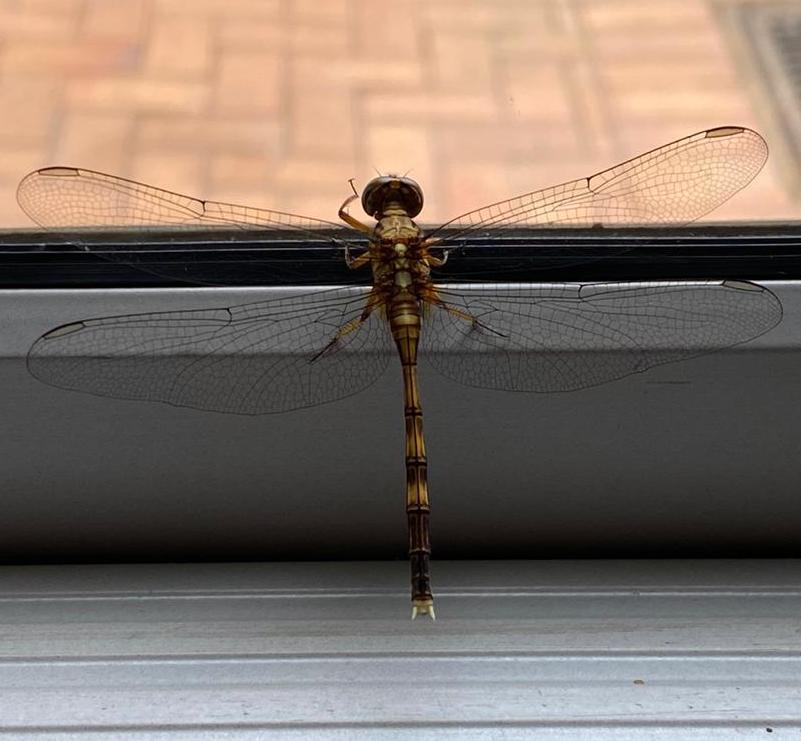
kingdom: Animalia
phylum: Arthropoda
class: Insecta
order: Odonata
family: Libellulidae
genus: Orthetrum
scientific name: Orthetrum julia
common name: Julia skimmer
